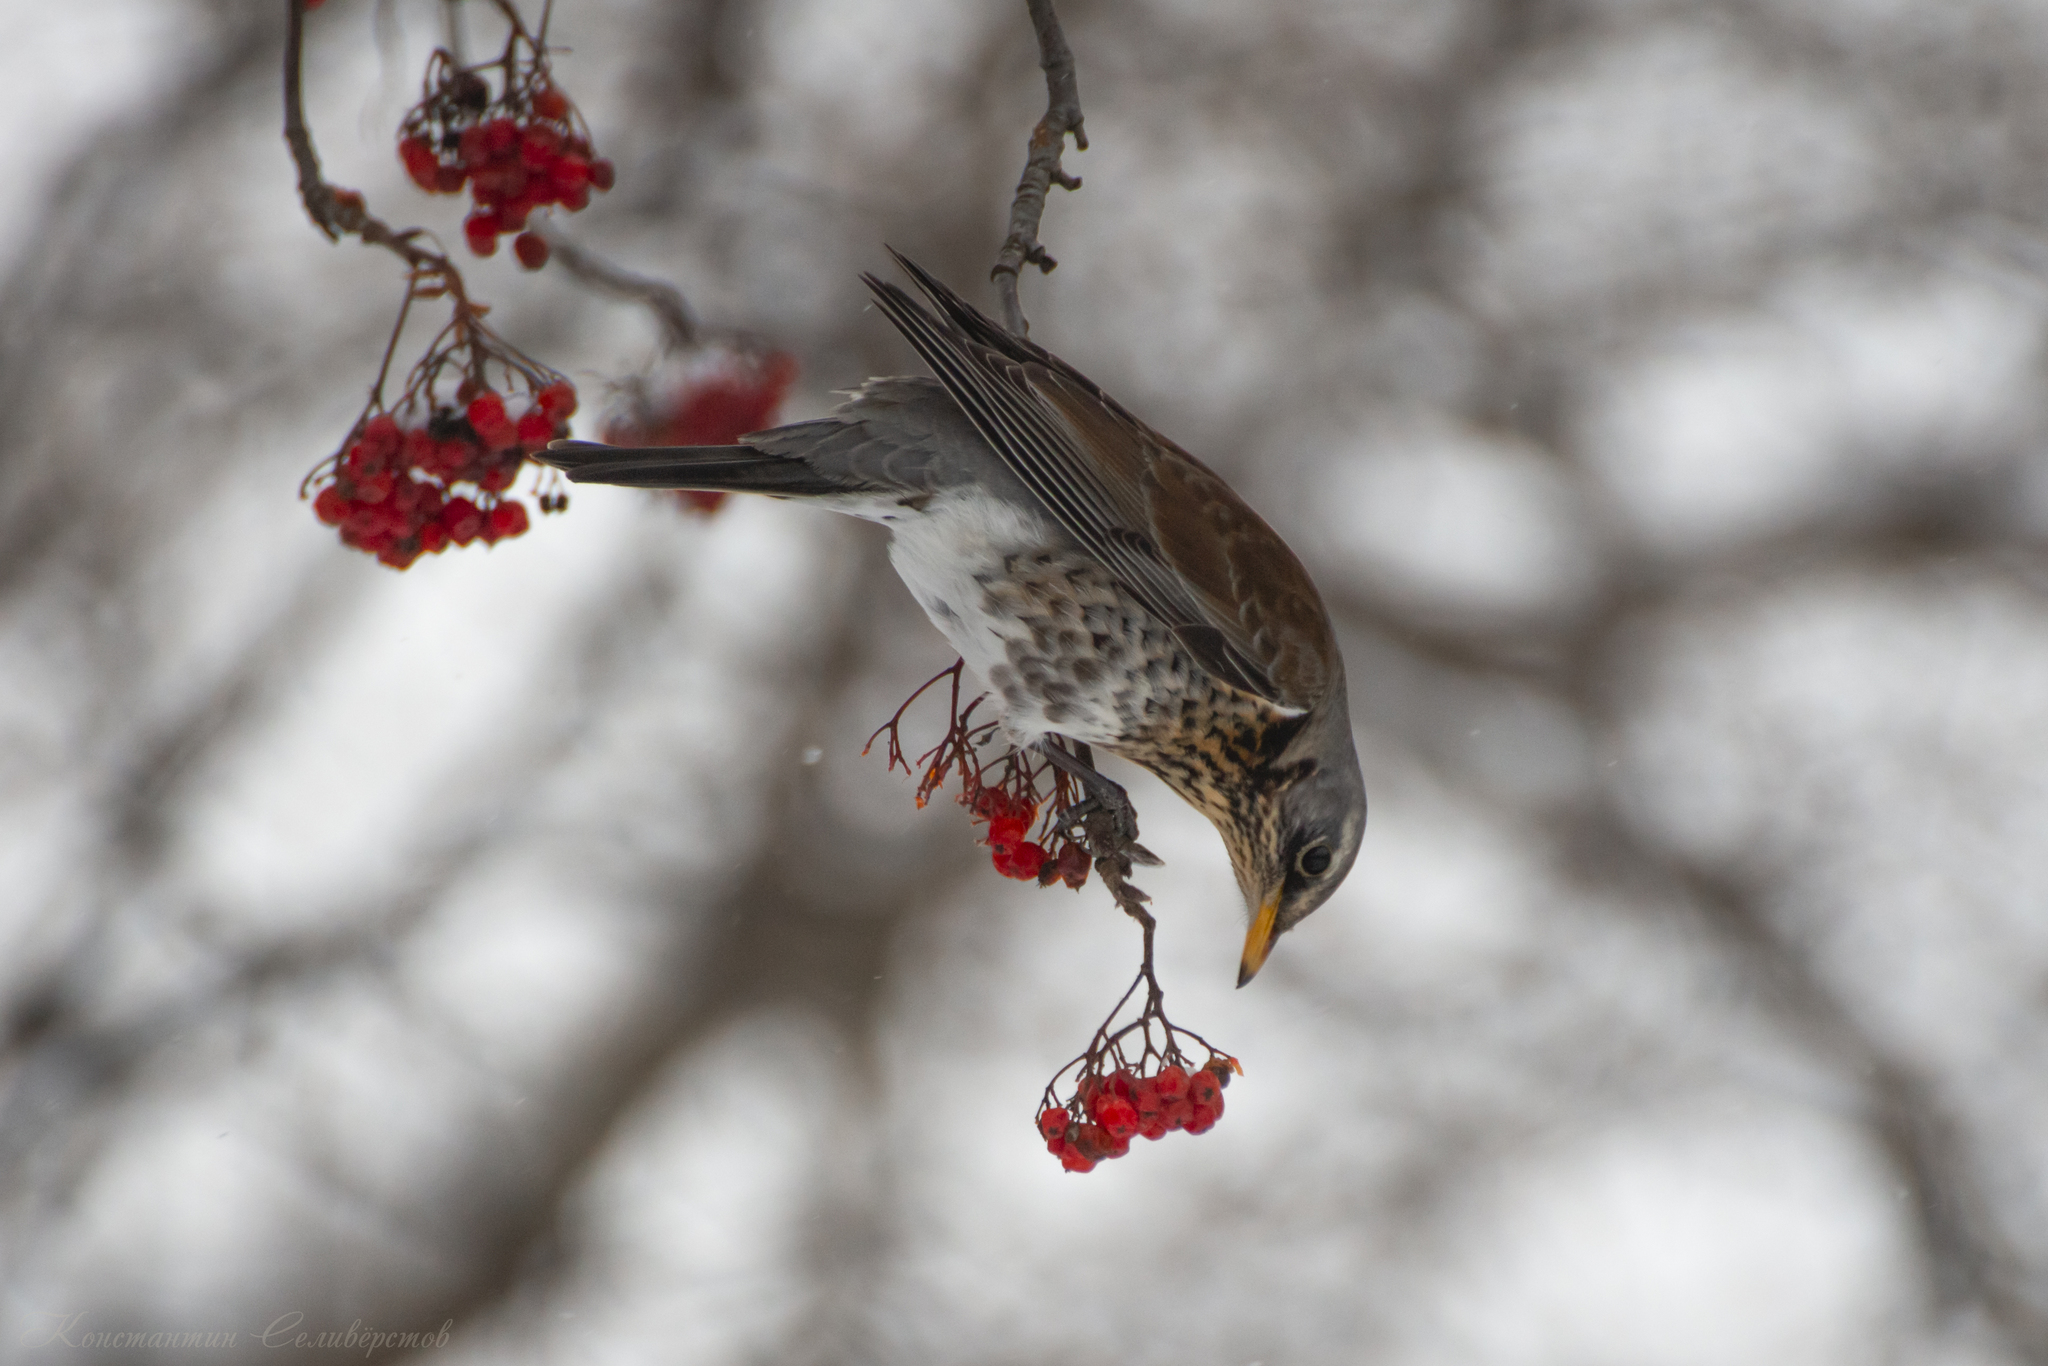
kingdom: Animalia
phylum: Chordata
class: Aves
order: Passeriformes
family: Turdidae
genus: Turdus
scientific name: Turdus pilaris
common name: Fieldfare
